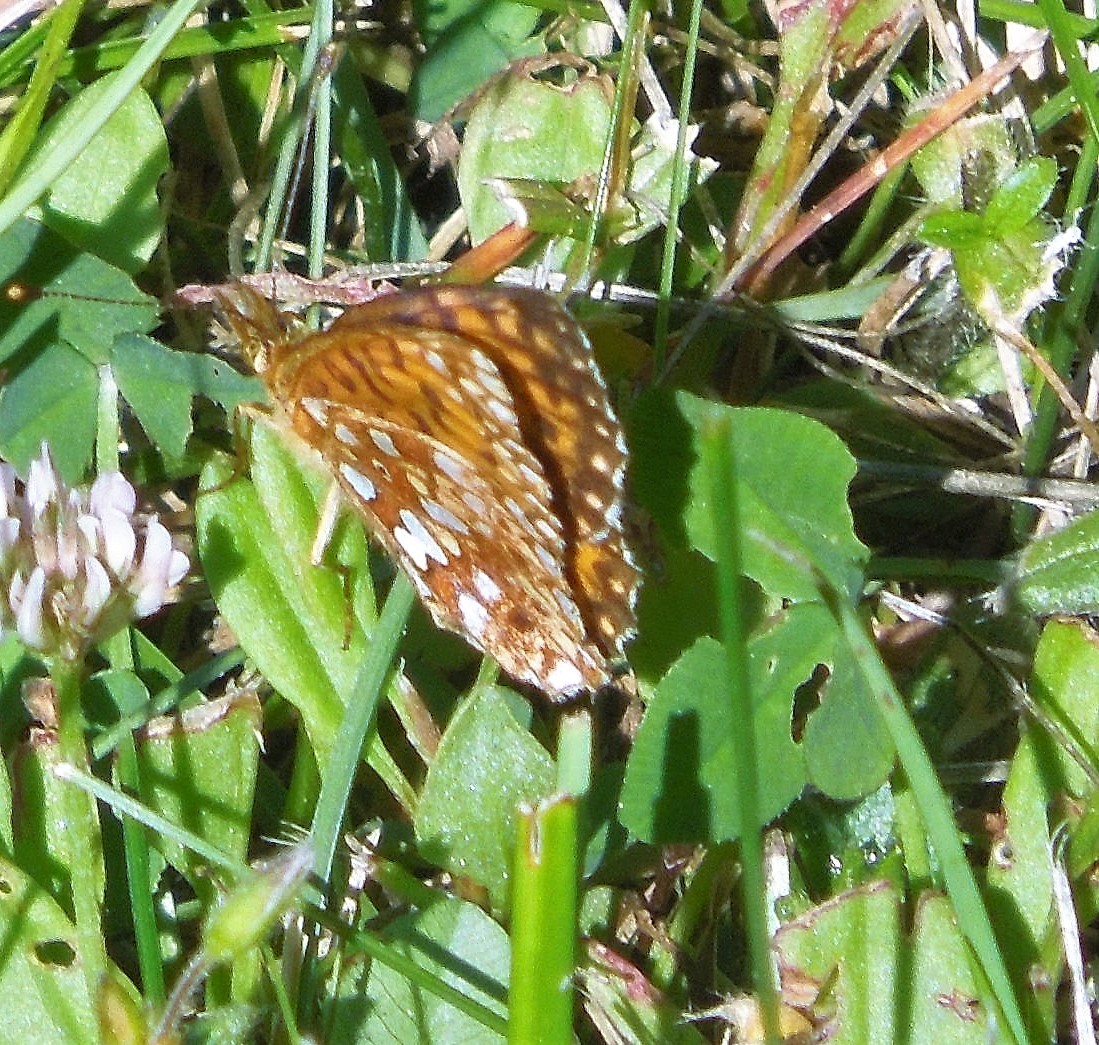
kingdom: Animalia
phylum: Arthropoda
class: Insecta
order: Lepidoptera
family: Nymphalidae
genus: Boloria
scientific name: Boloria
